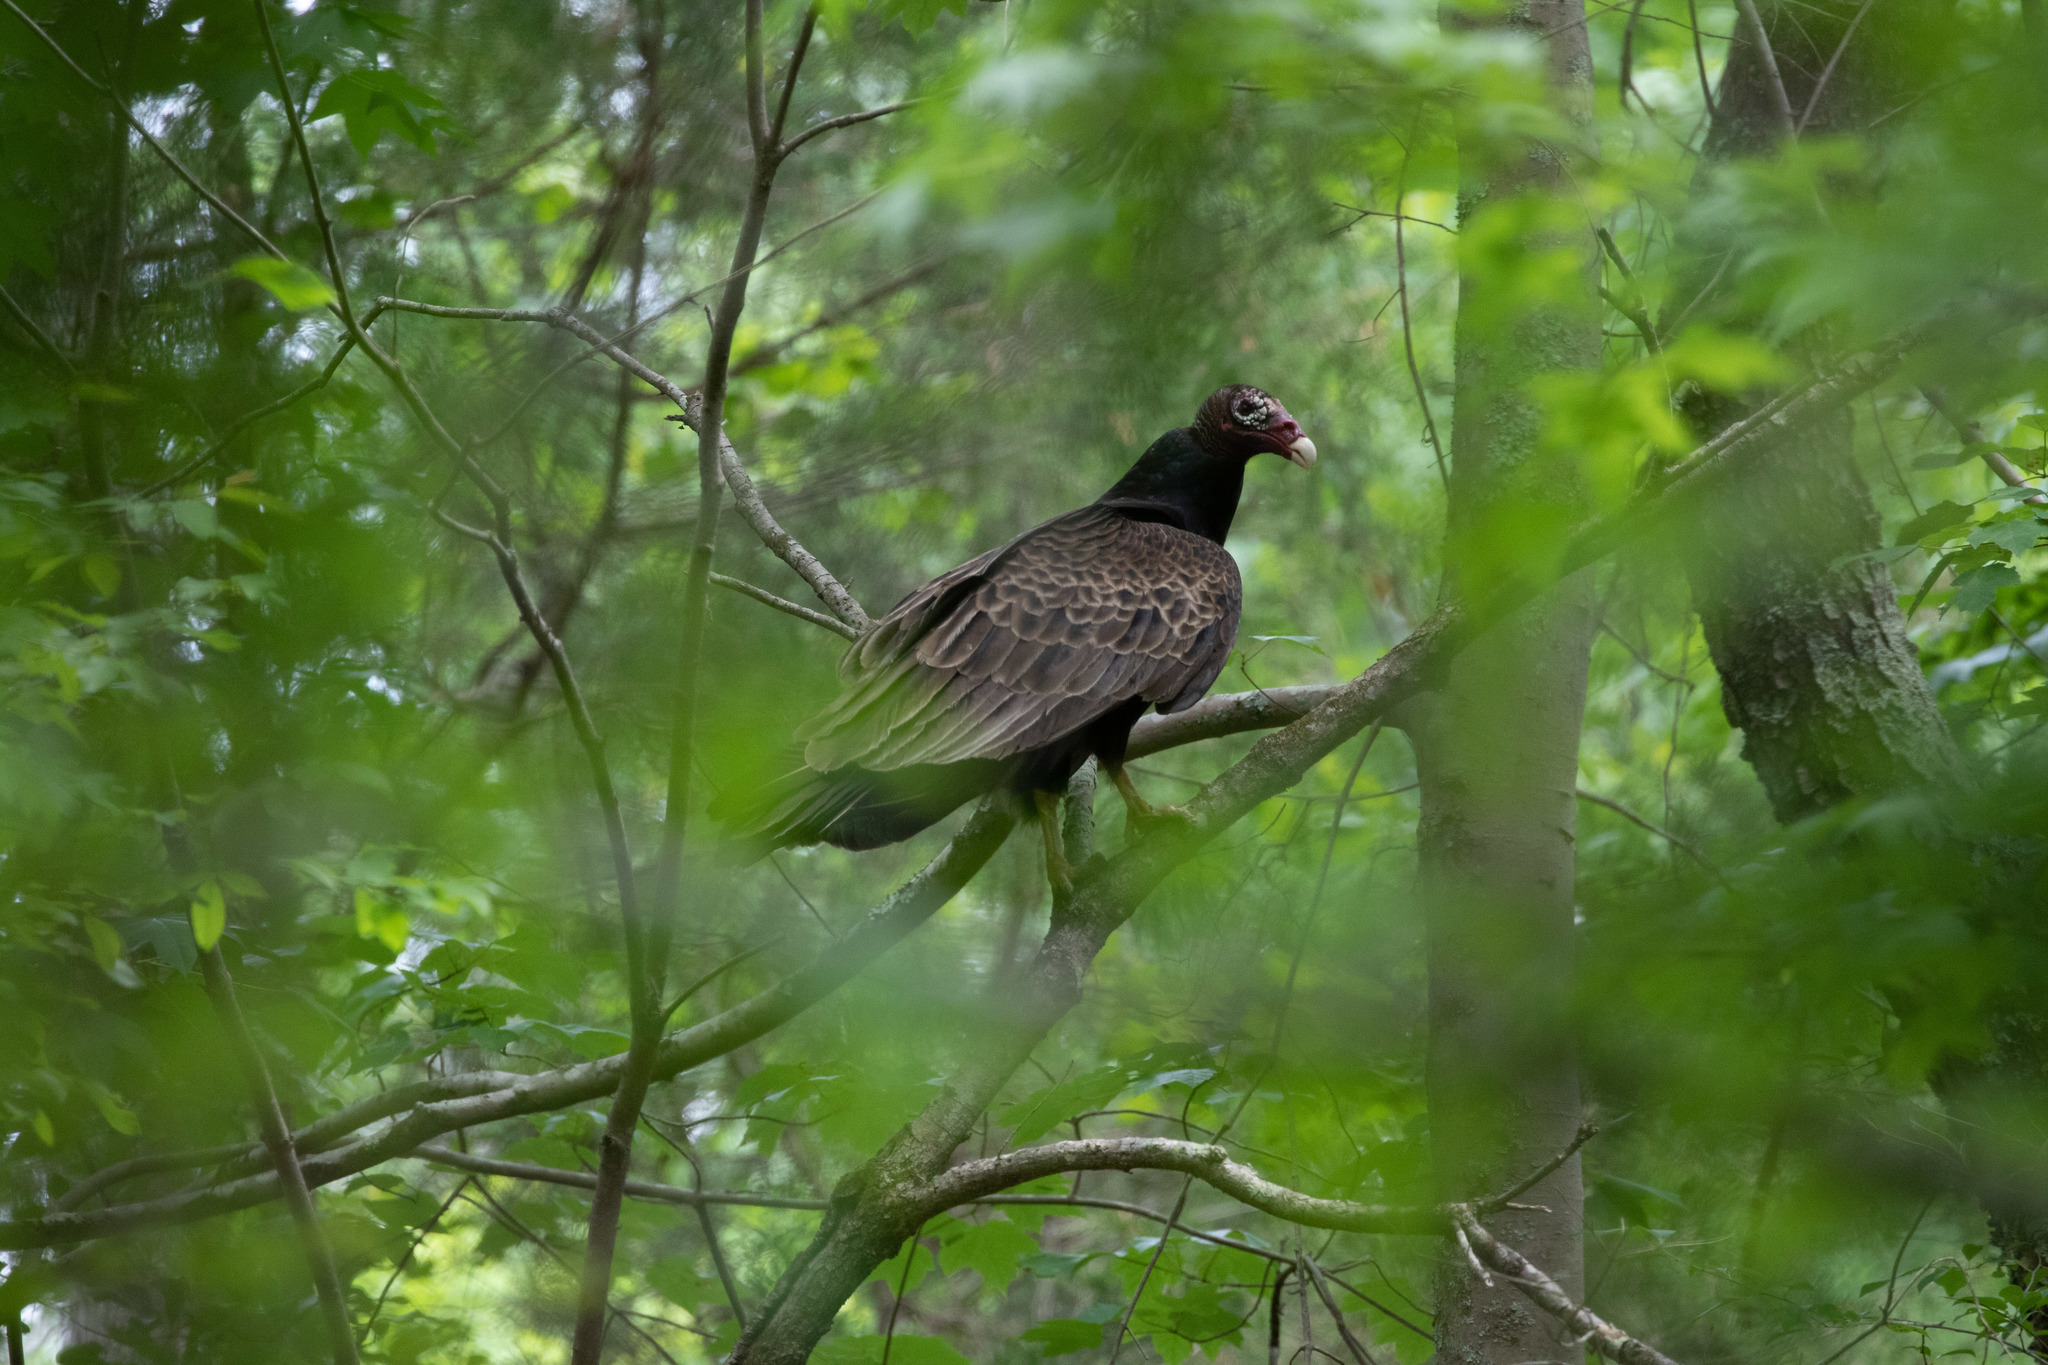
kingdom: Animalia
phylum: Chordata
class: Aves
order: Accipitriformes
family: Cathartidae
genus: Cathartes
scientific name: Cathartes aura
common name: Turkey vulture
